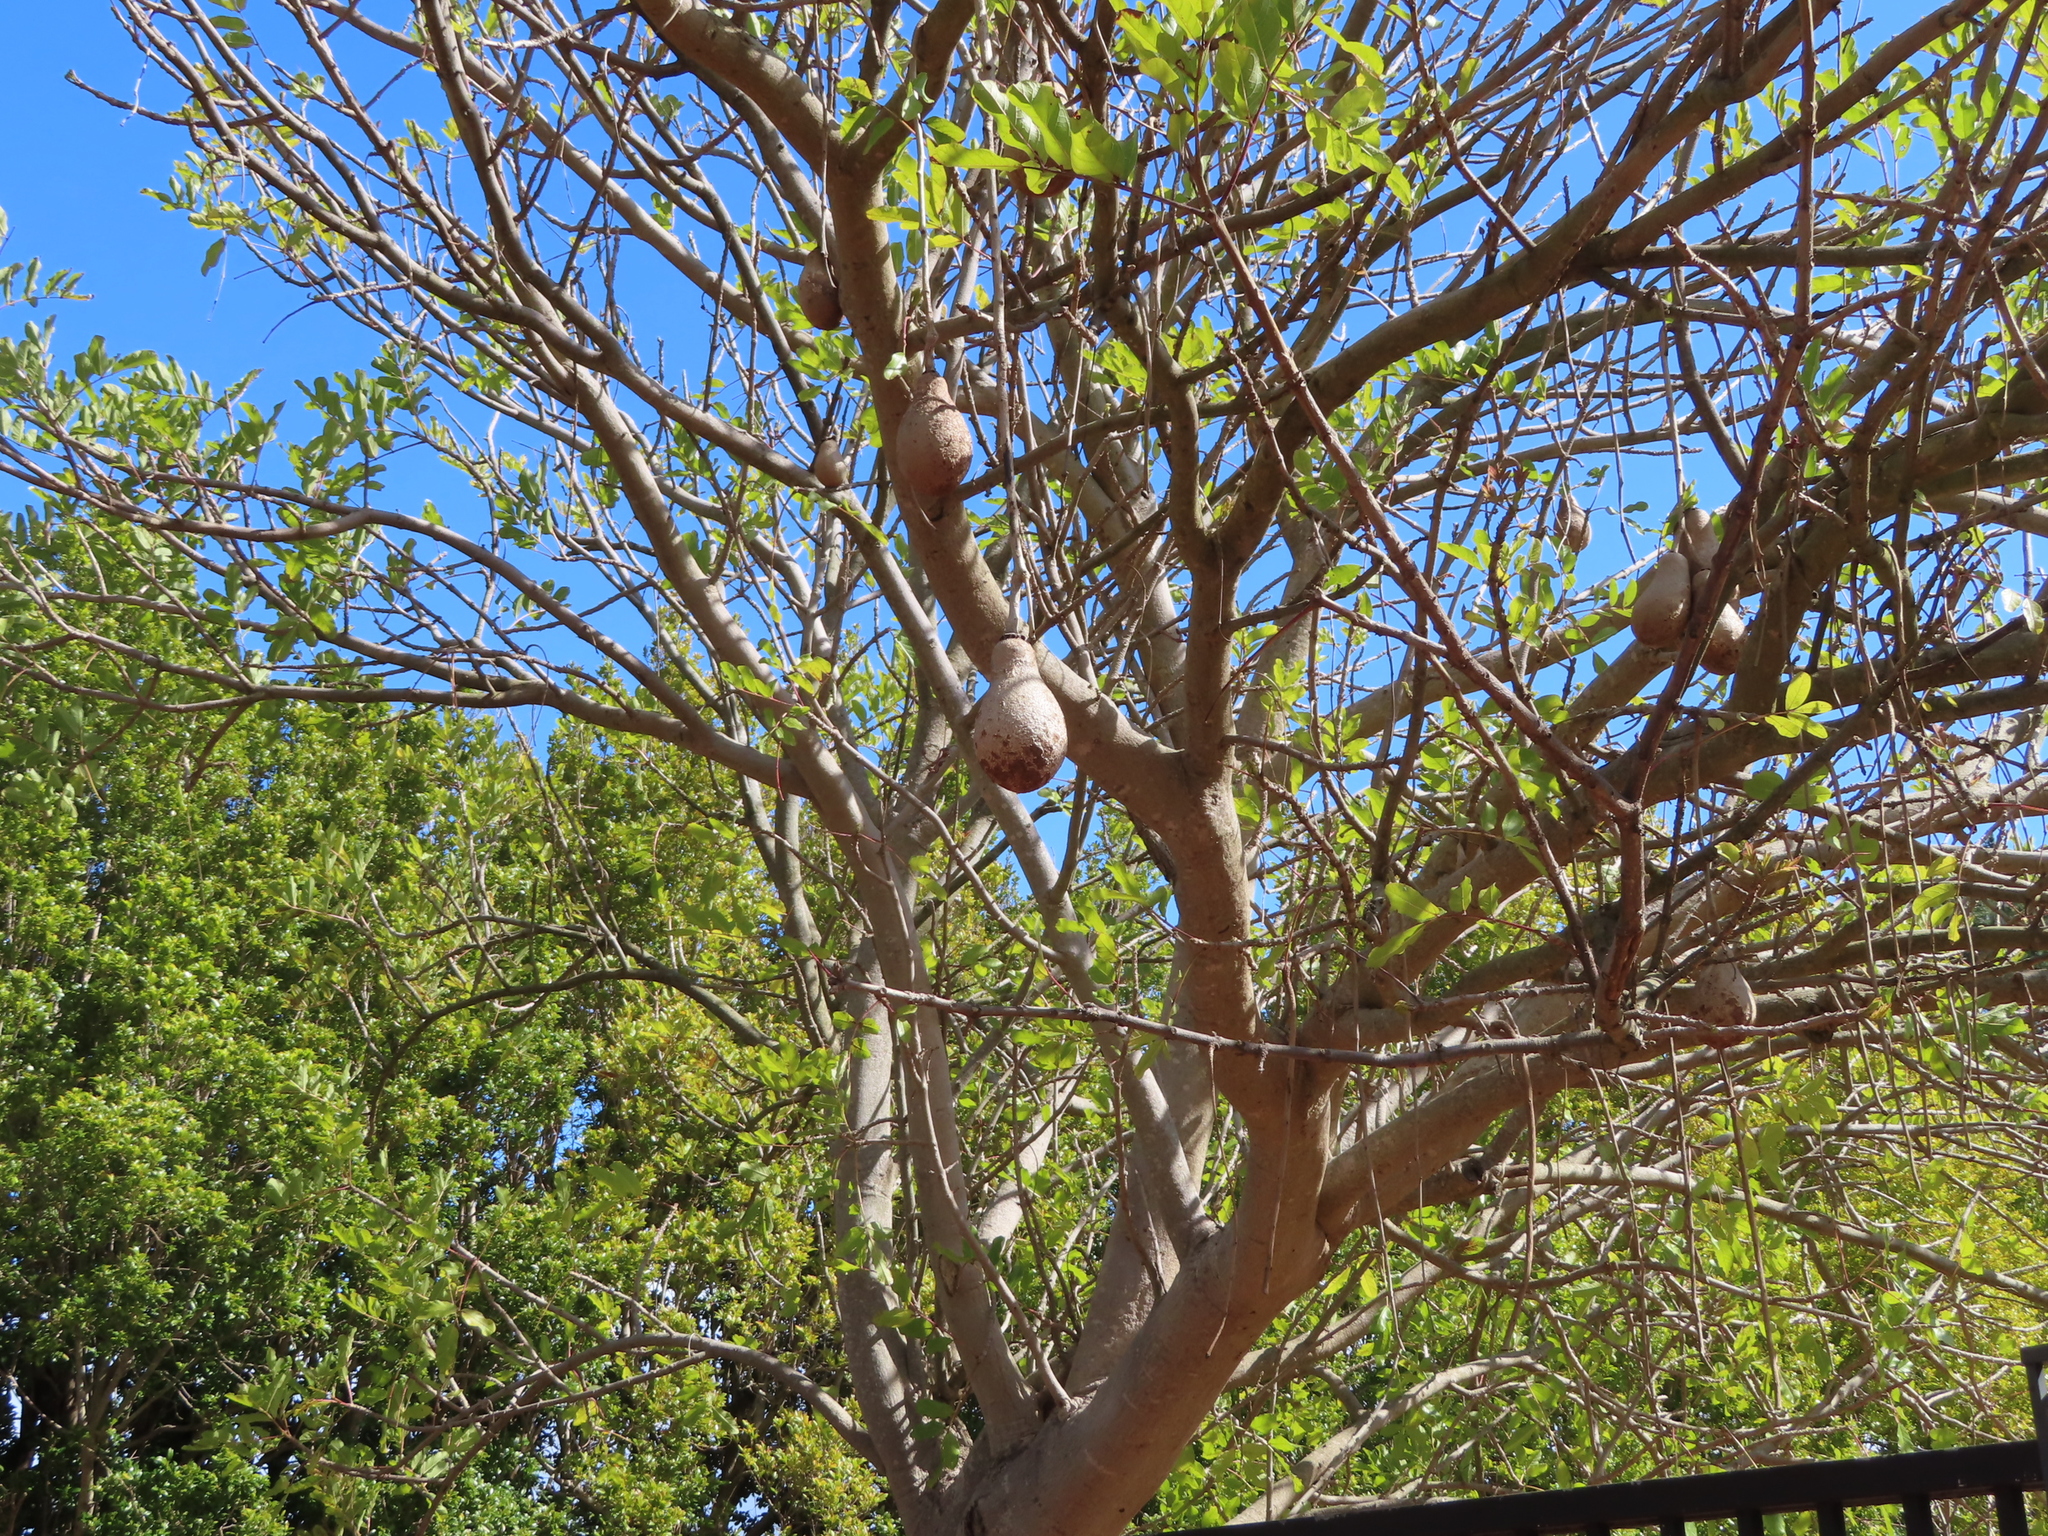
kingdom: Plantae
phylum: Tracheophyta
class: Magnoliopsida
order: Lamiales
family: Bignoniaceae
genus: Kigelia
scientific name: Kigelia africana
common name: Sausage tree
